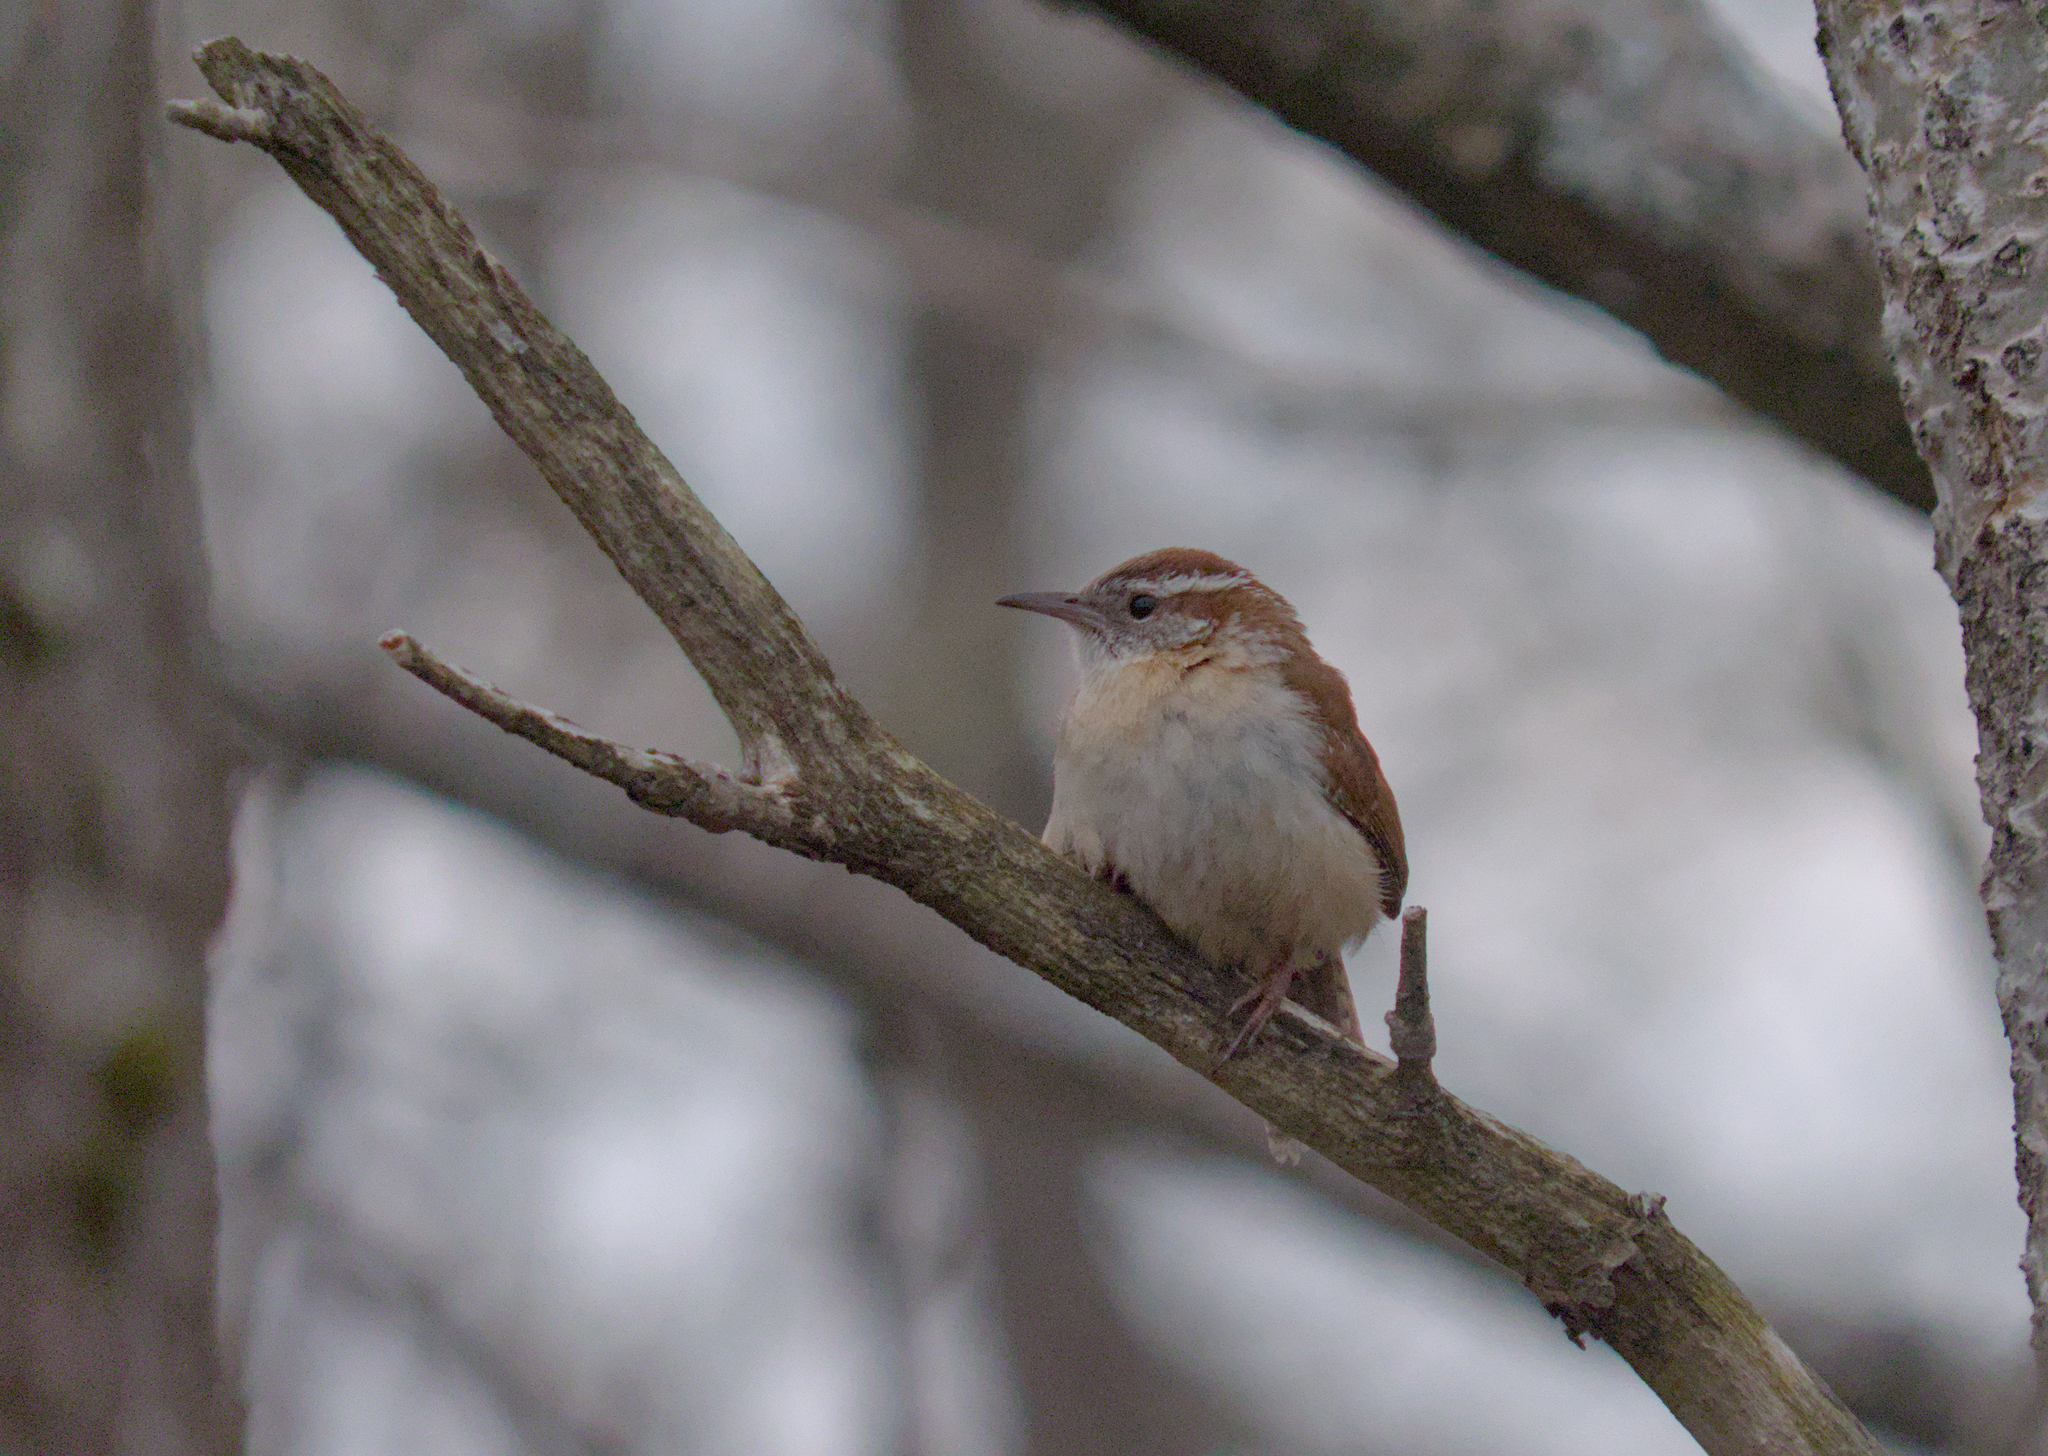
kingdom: Animalia
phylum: Chordata
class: Aves
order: Passeriformes
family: Troglodytidae
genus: Thryothorus
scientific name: Thryothorus ludovicianus
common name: Carolina wren
